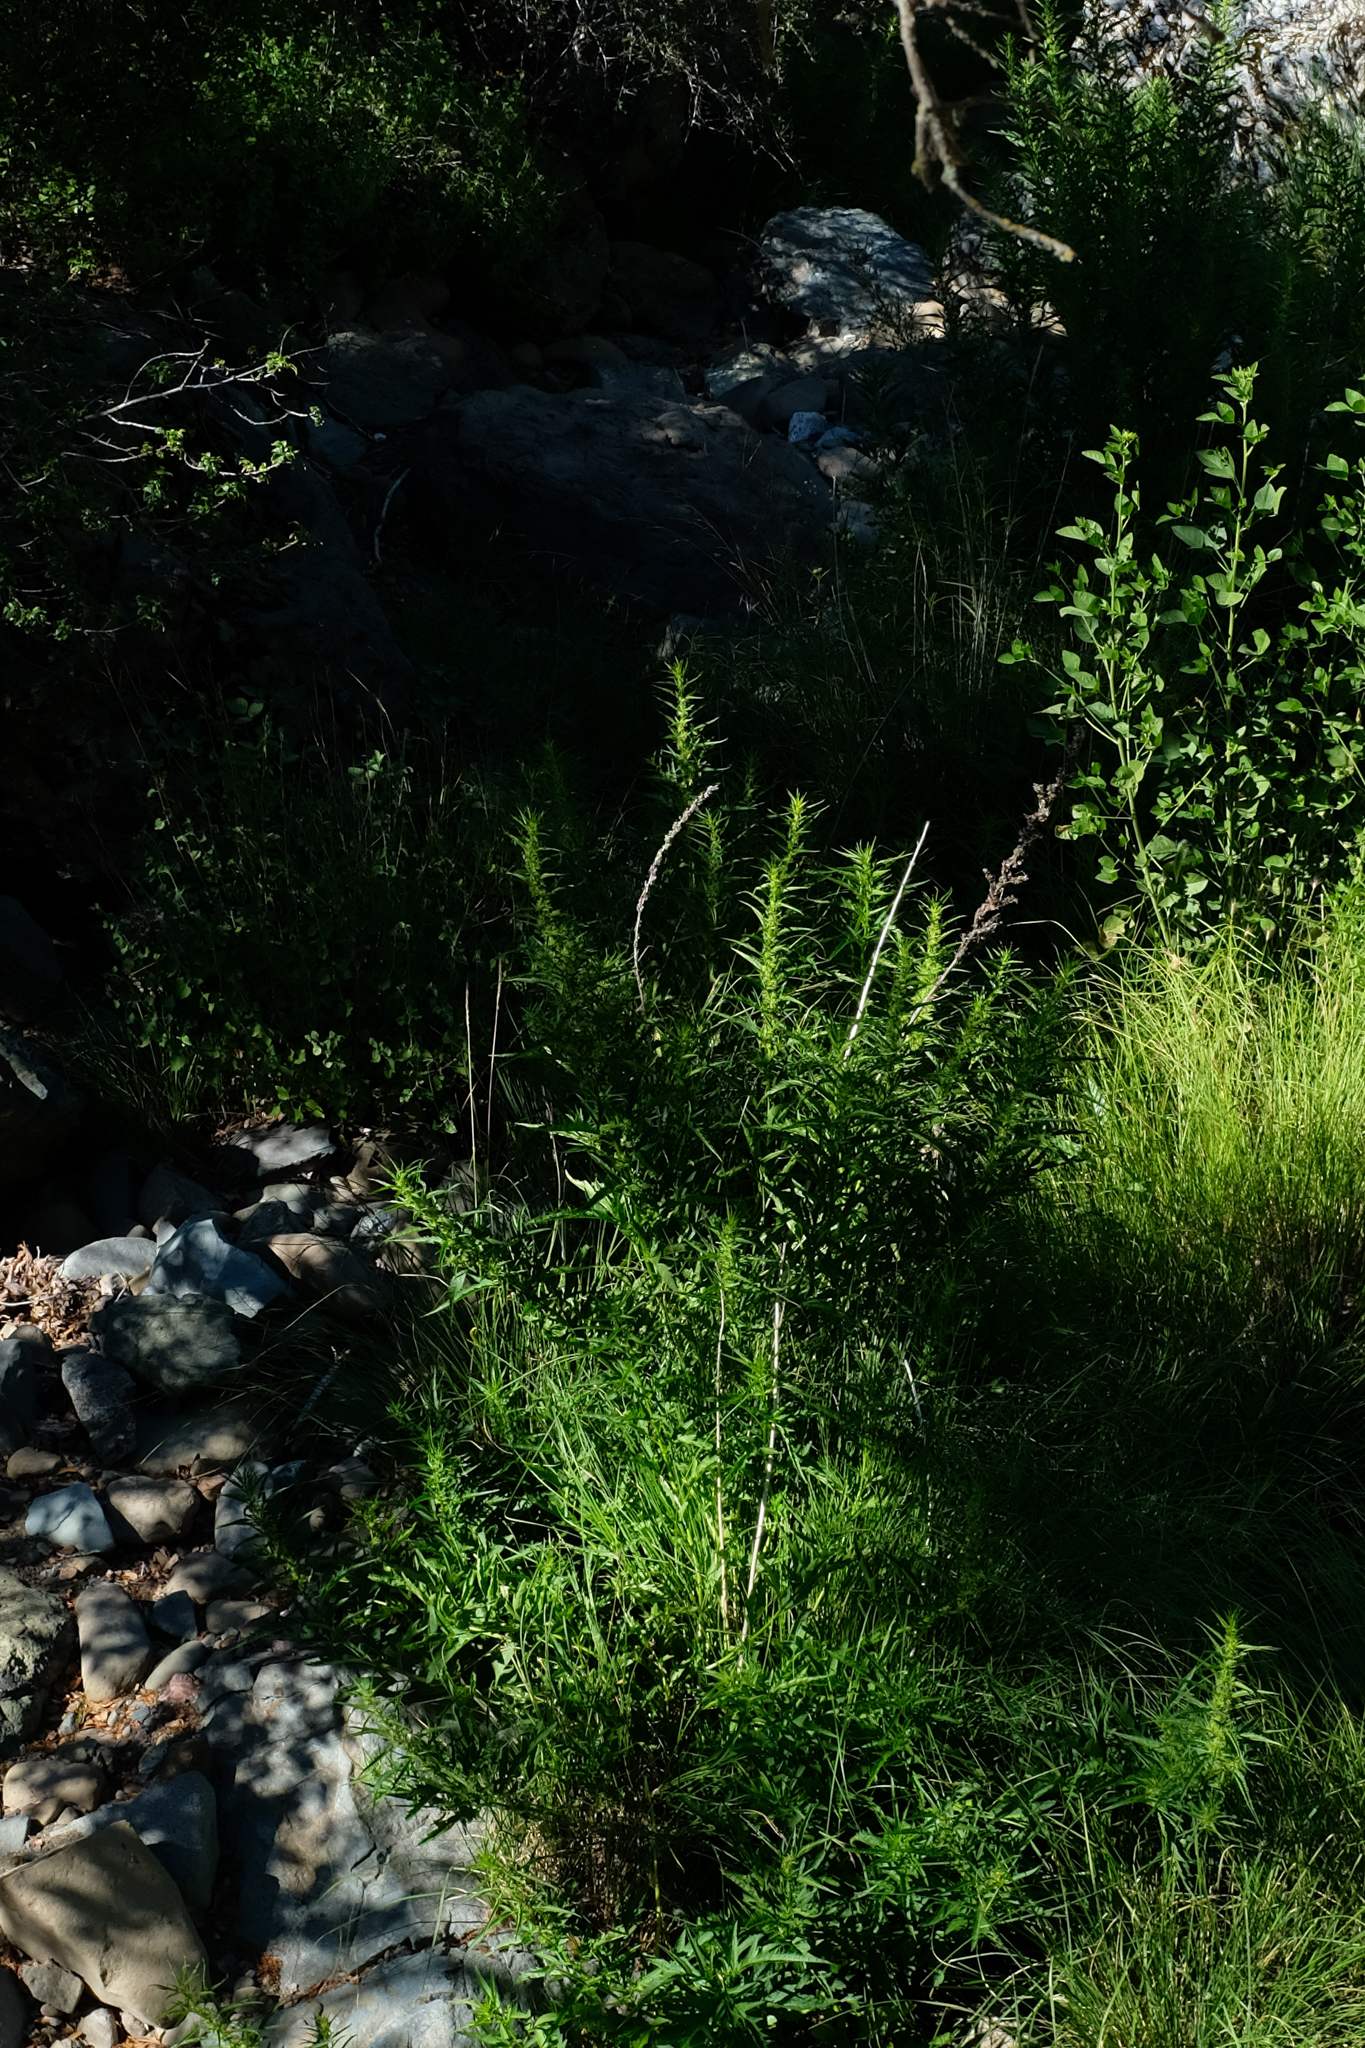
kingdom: Plantae
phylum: Tracheophyta
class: Magnoliopsida
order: Cucurbitales
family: Datiscaceae
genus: Datisca
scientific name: Datisca glomerata
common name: Durango-root
